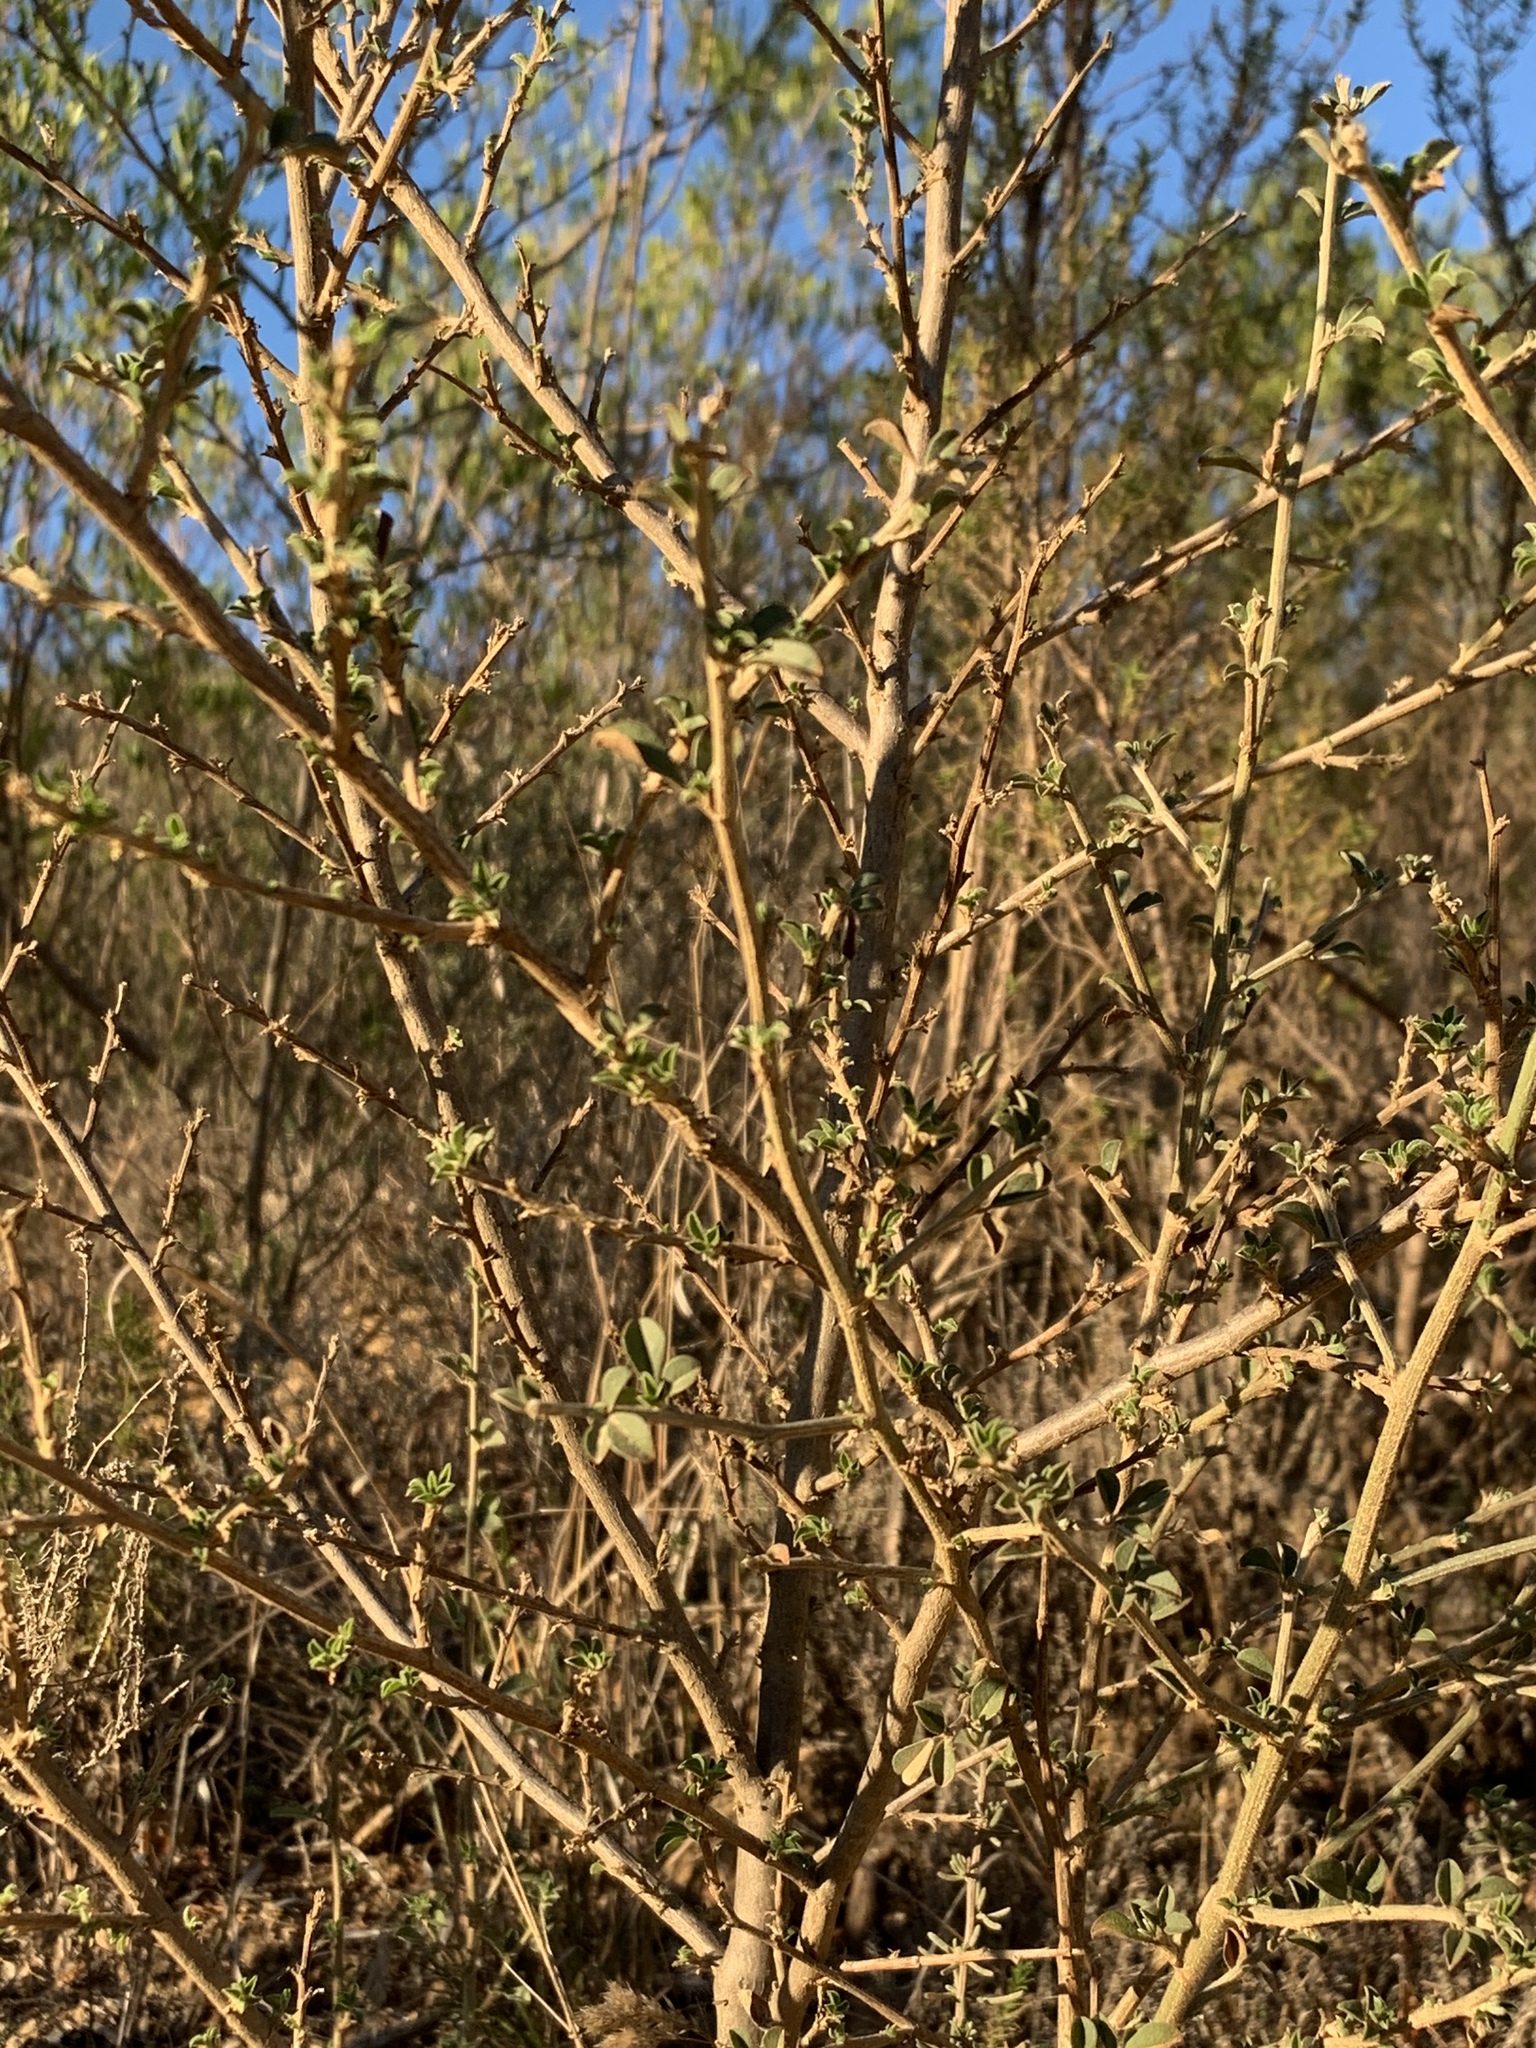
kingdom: Plantae
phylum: Tracheophyta
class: Magnoliopsida
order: Fabales
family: Fabaceae
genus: Psoralea
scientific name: Psoralea hirta
